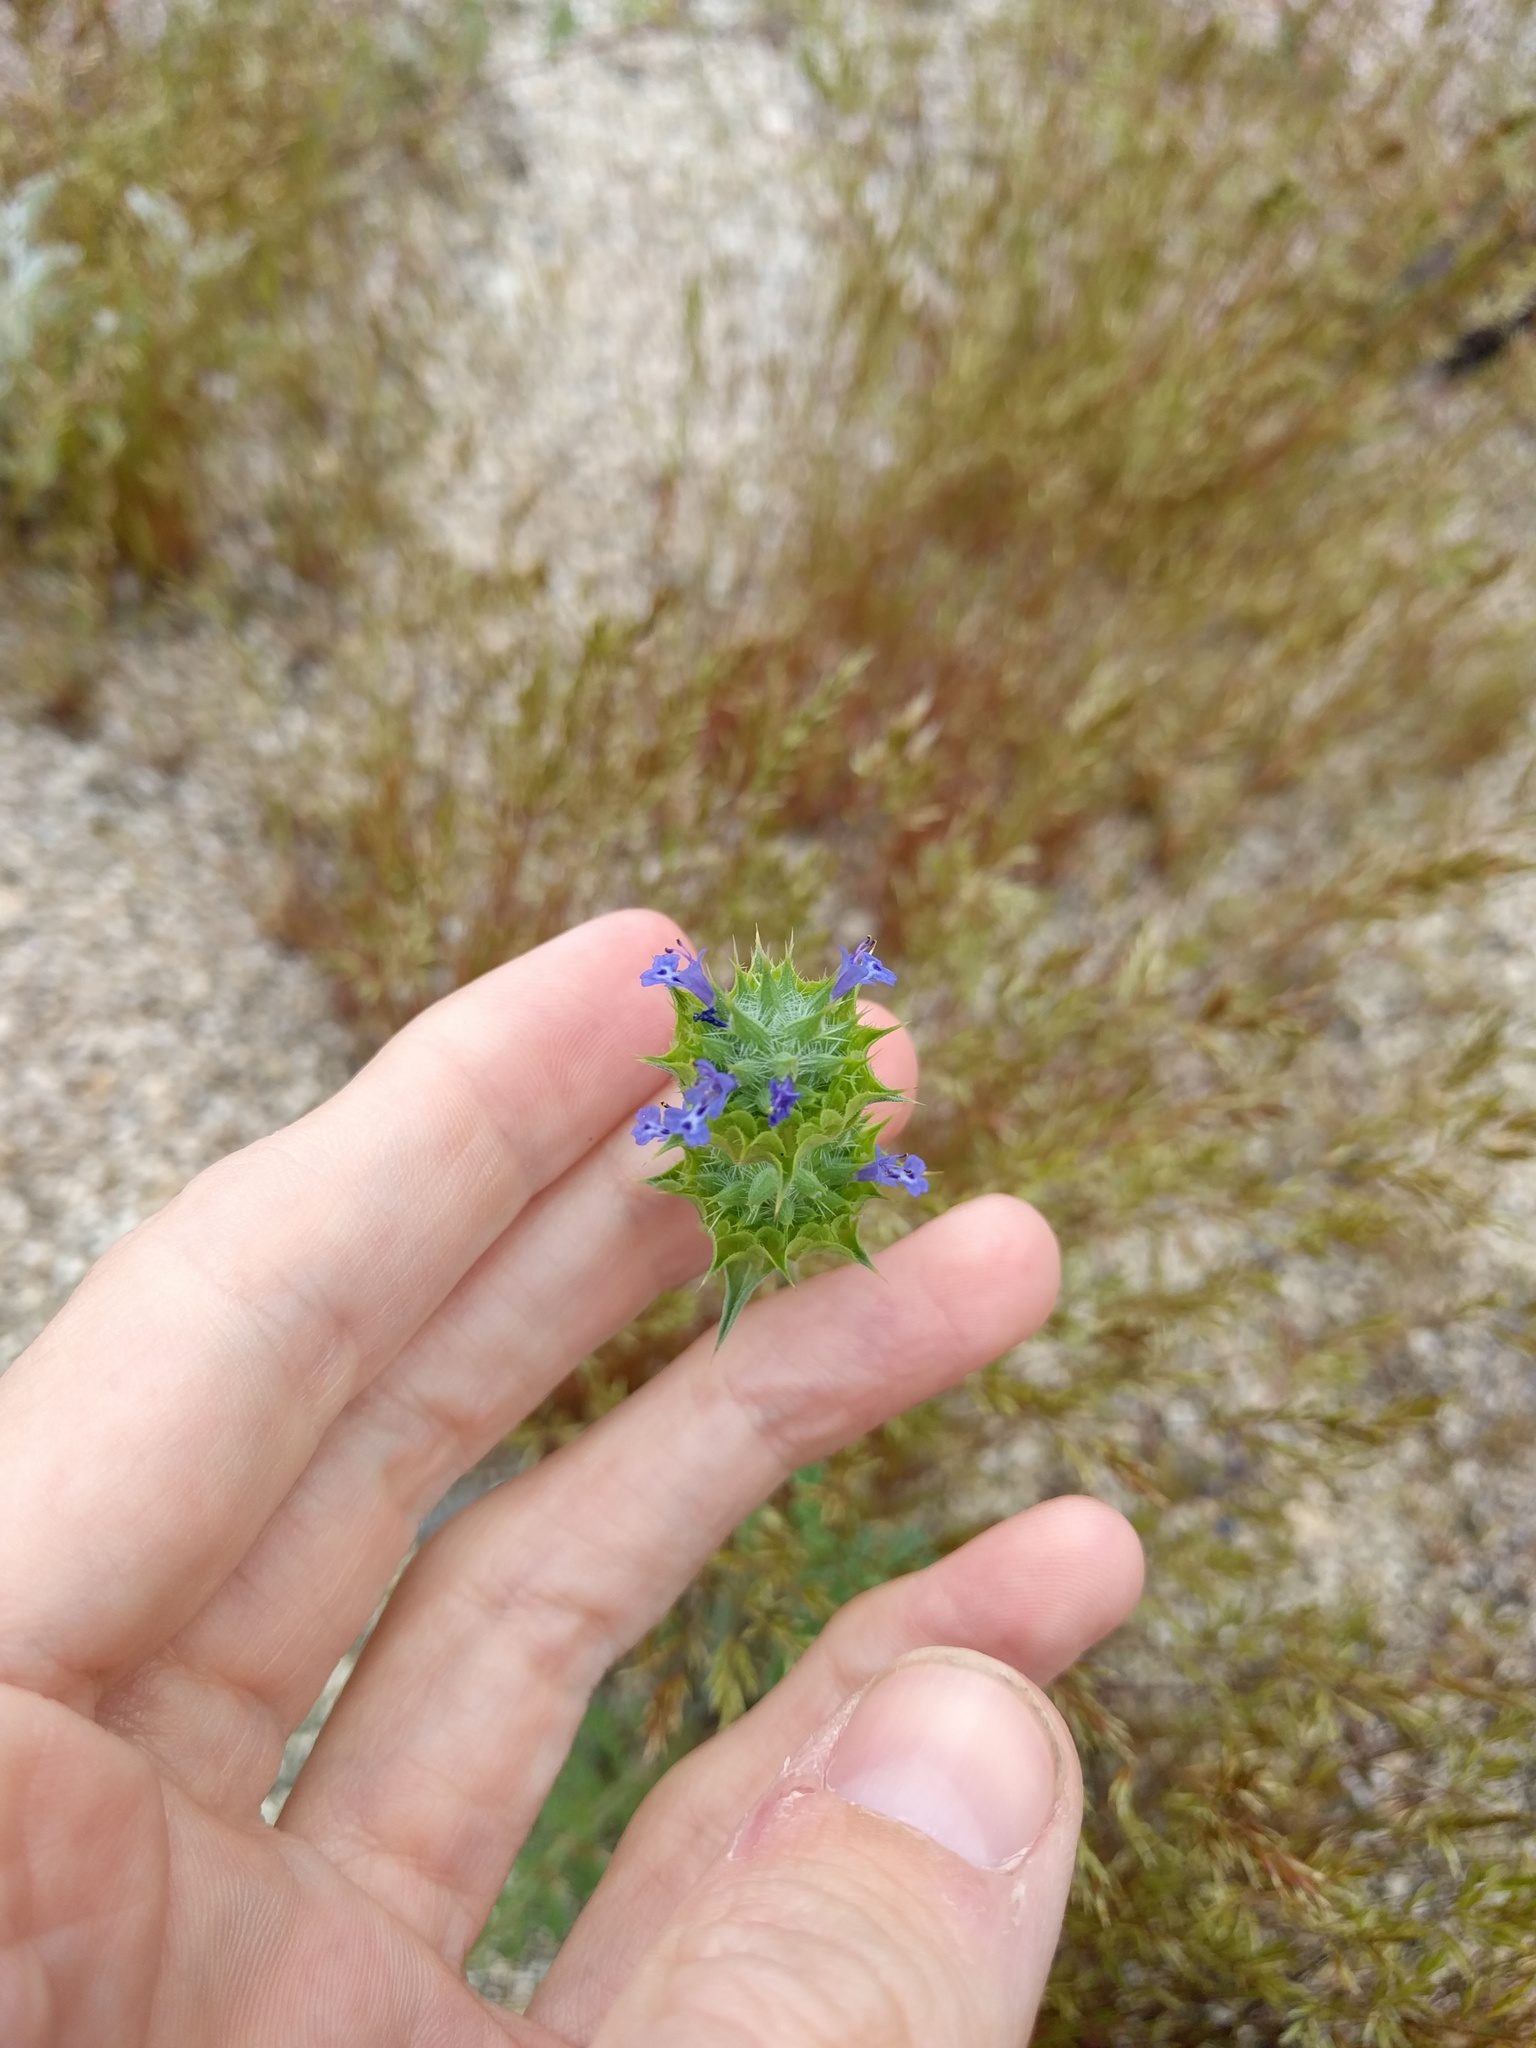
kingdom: Plantae
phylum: Tracheophyta
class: Magnoliopsida
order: Lamiales
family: Lamiaceae
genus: Salvia
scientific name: Salvia columbariae
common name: Chia
